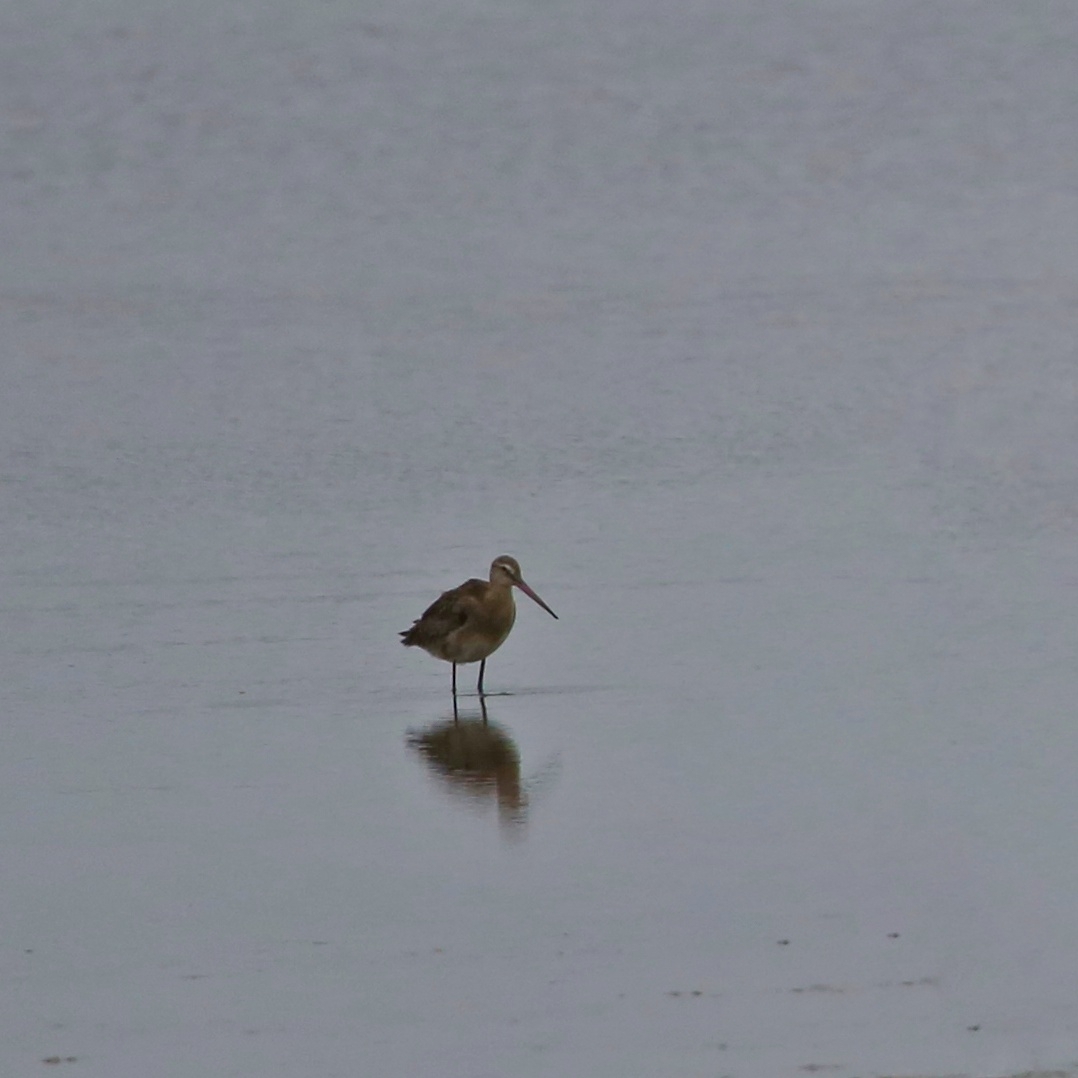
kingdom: Animalia
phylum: Chordata
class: Aves
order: Charadriiformes
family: Scolopacidae
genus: Limosa
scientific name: Limosa limosa
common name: Black-tailed godwit
